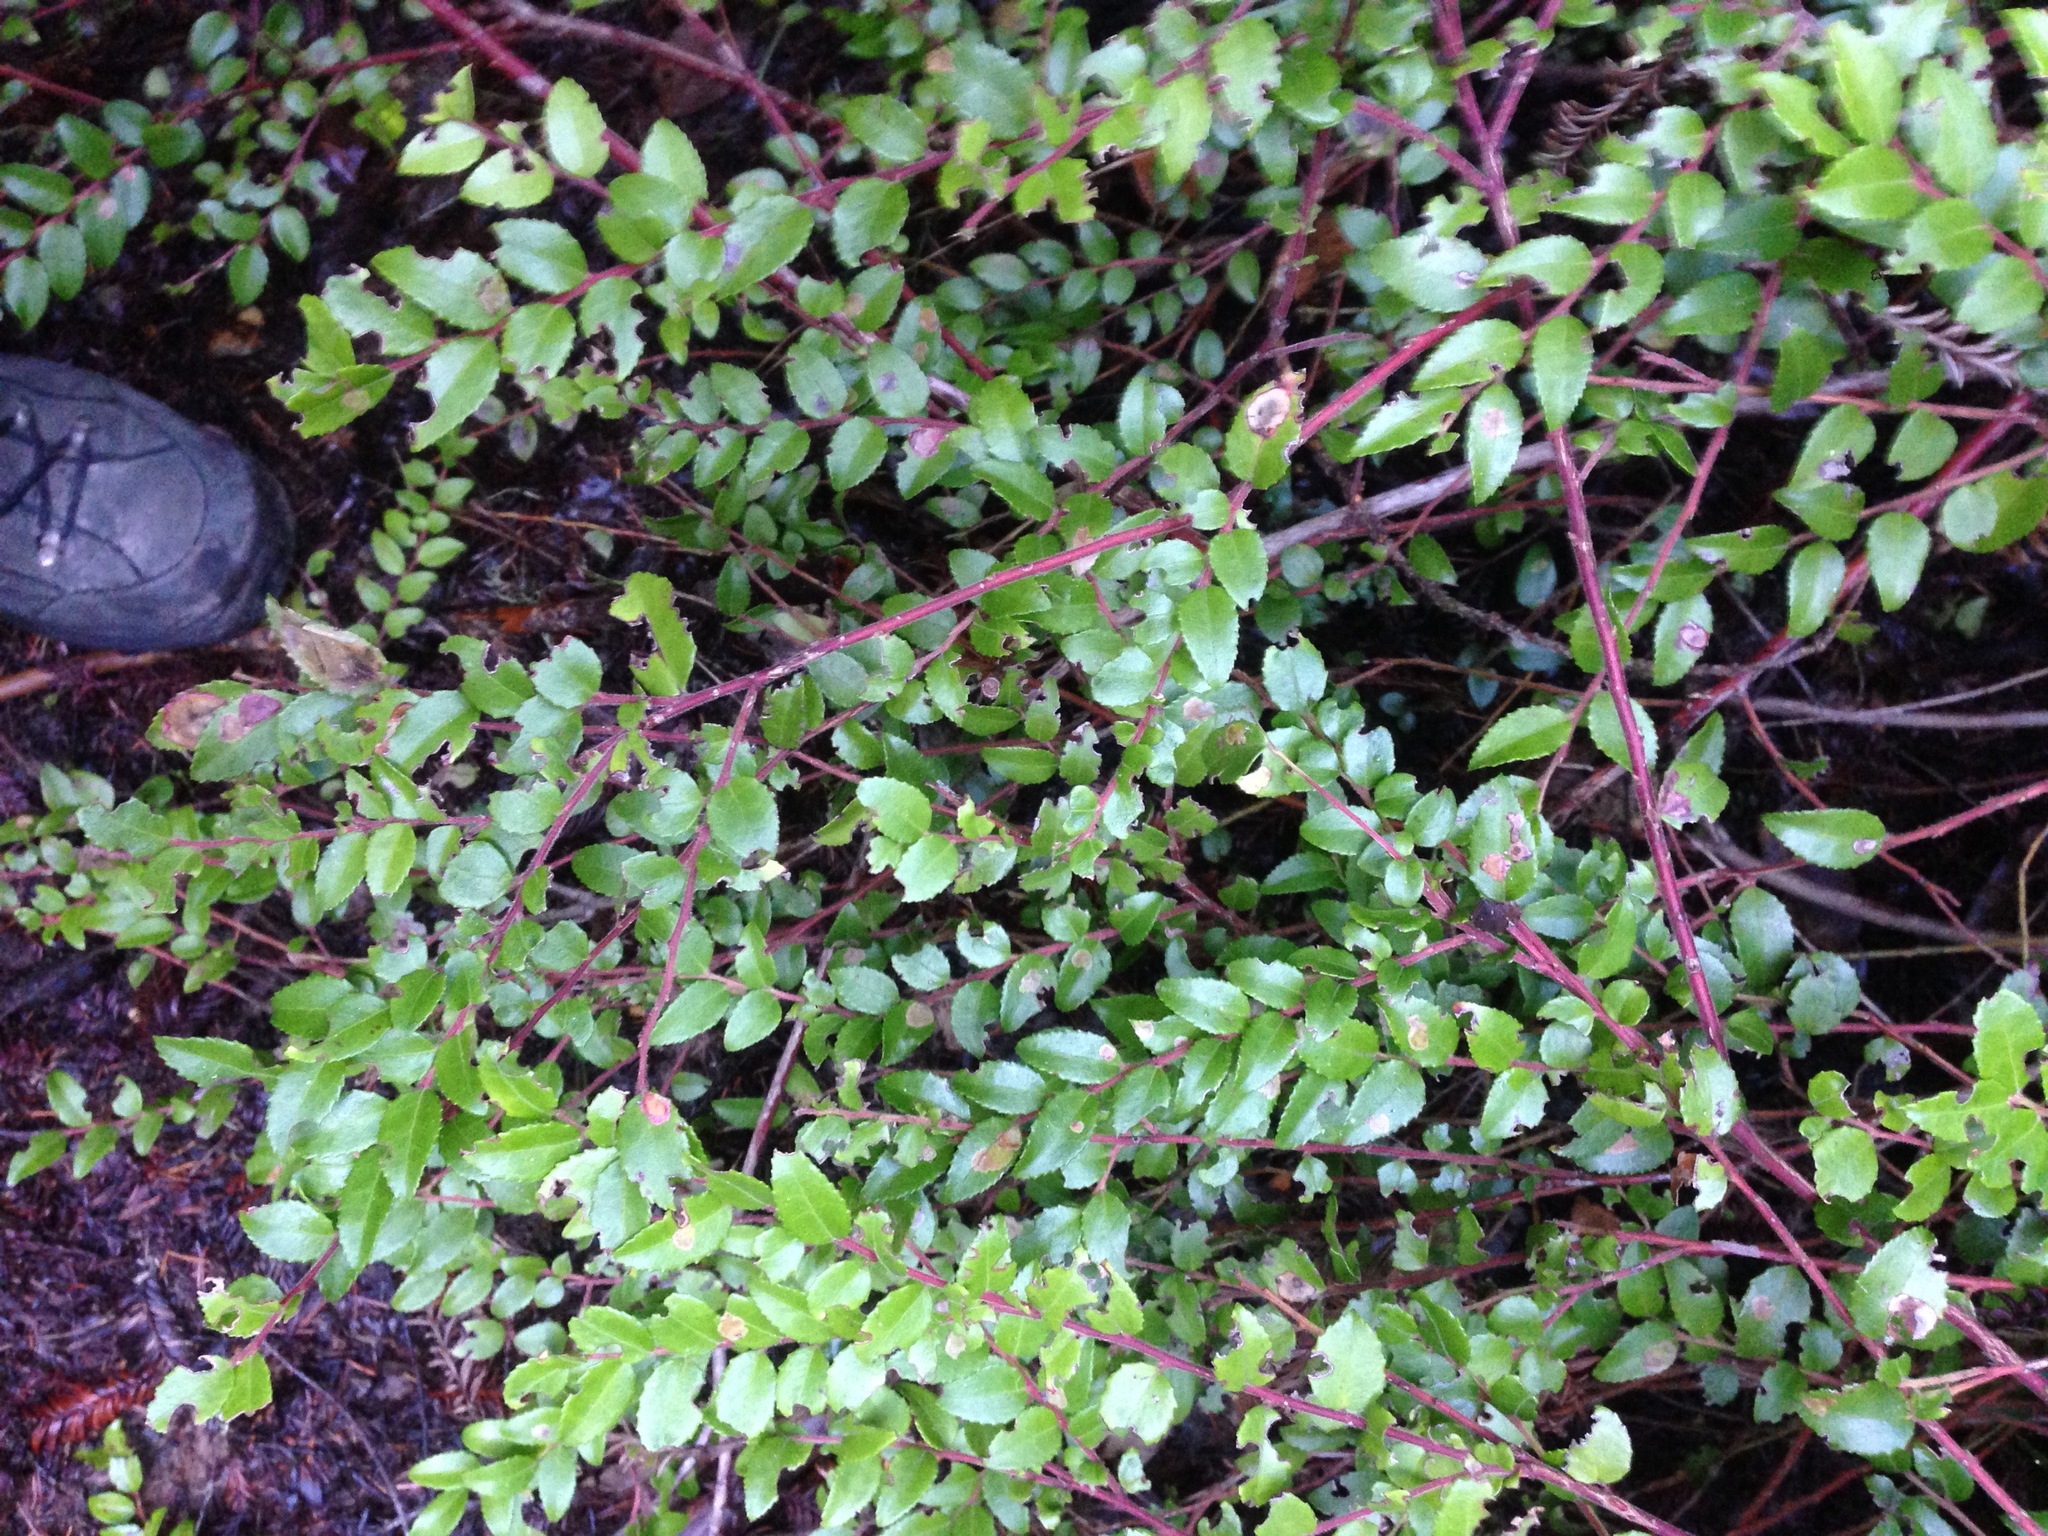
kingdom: Plantae
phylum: Tracheophyta
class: Magnoliopsida
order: Ericales
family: Ericaceae
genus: Vaccinium
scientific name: Vaccinium ovatum
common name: California-huckleberry
